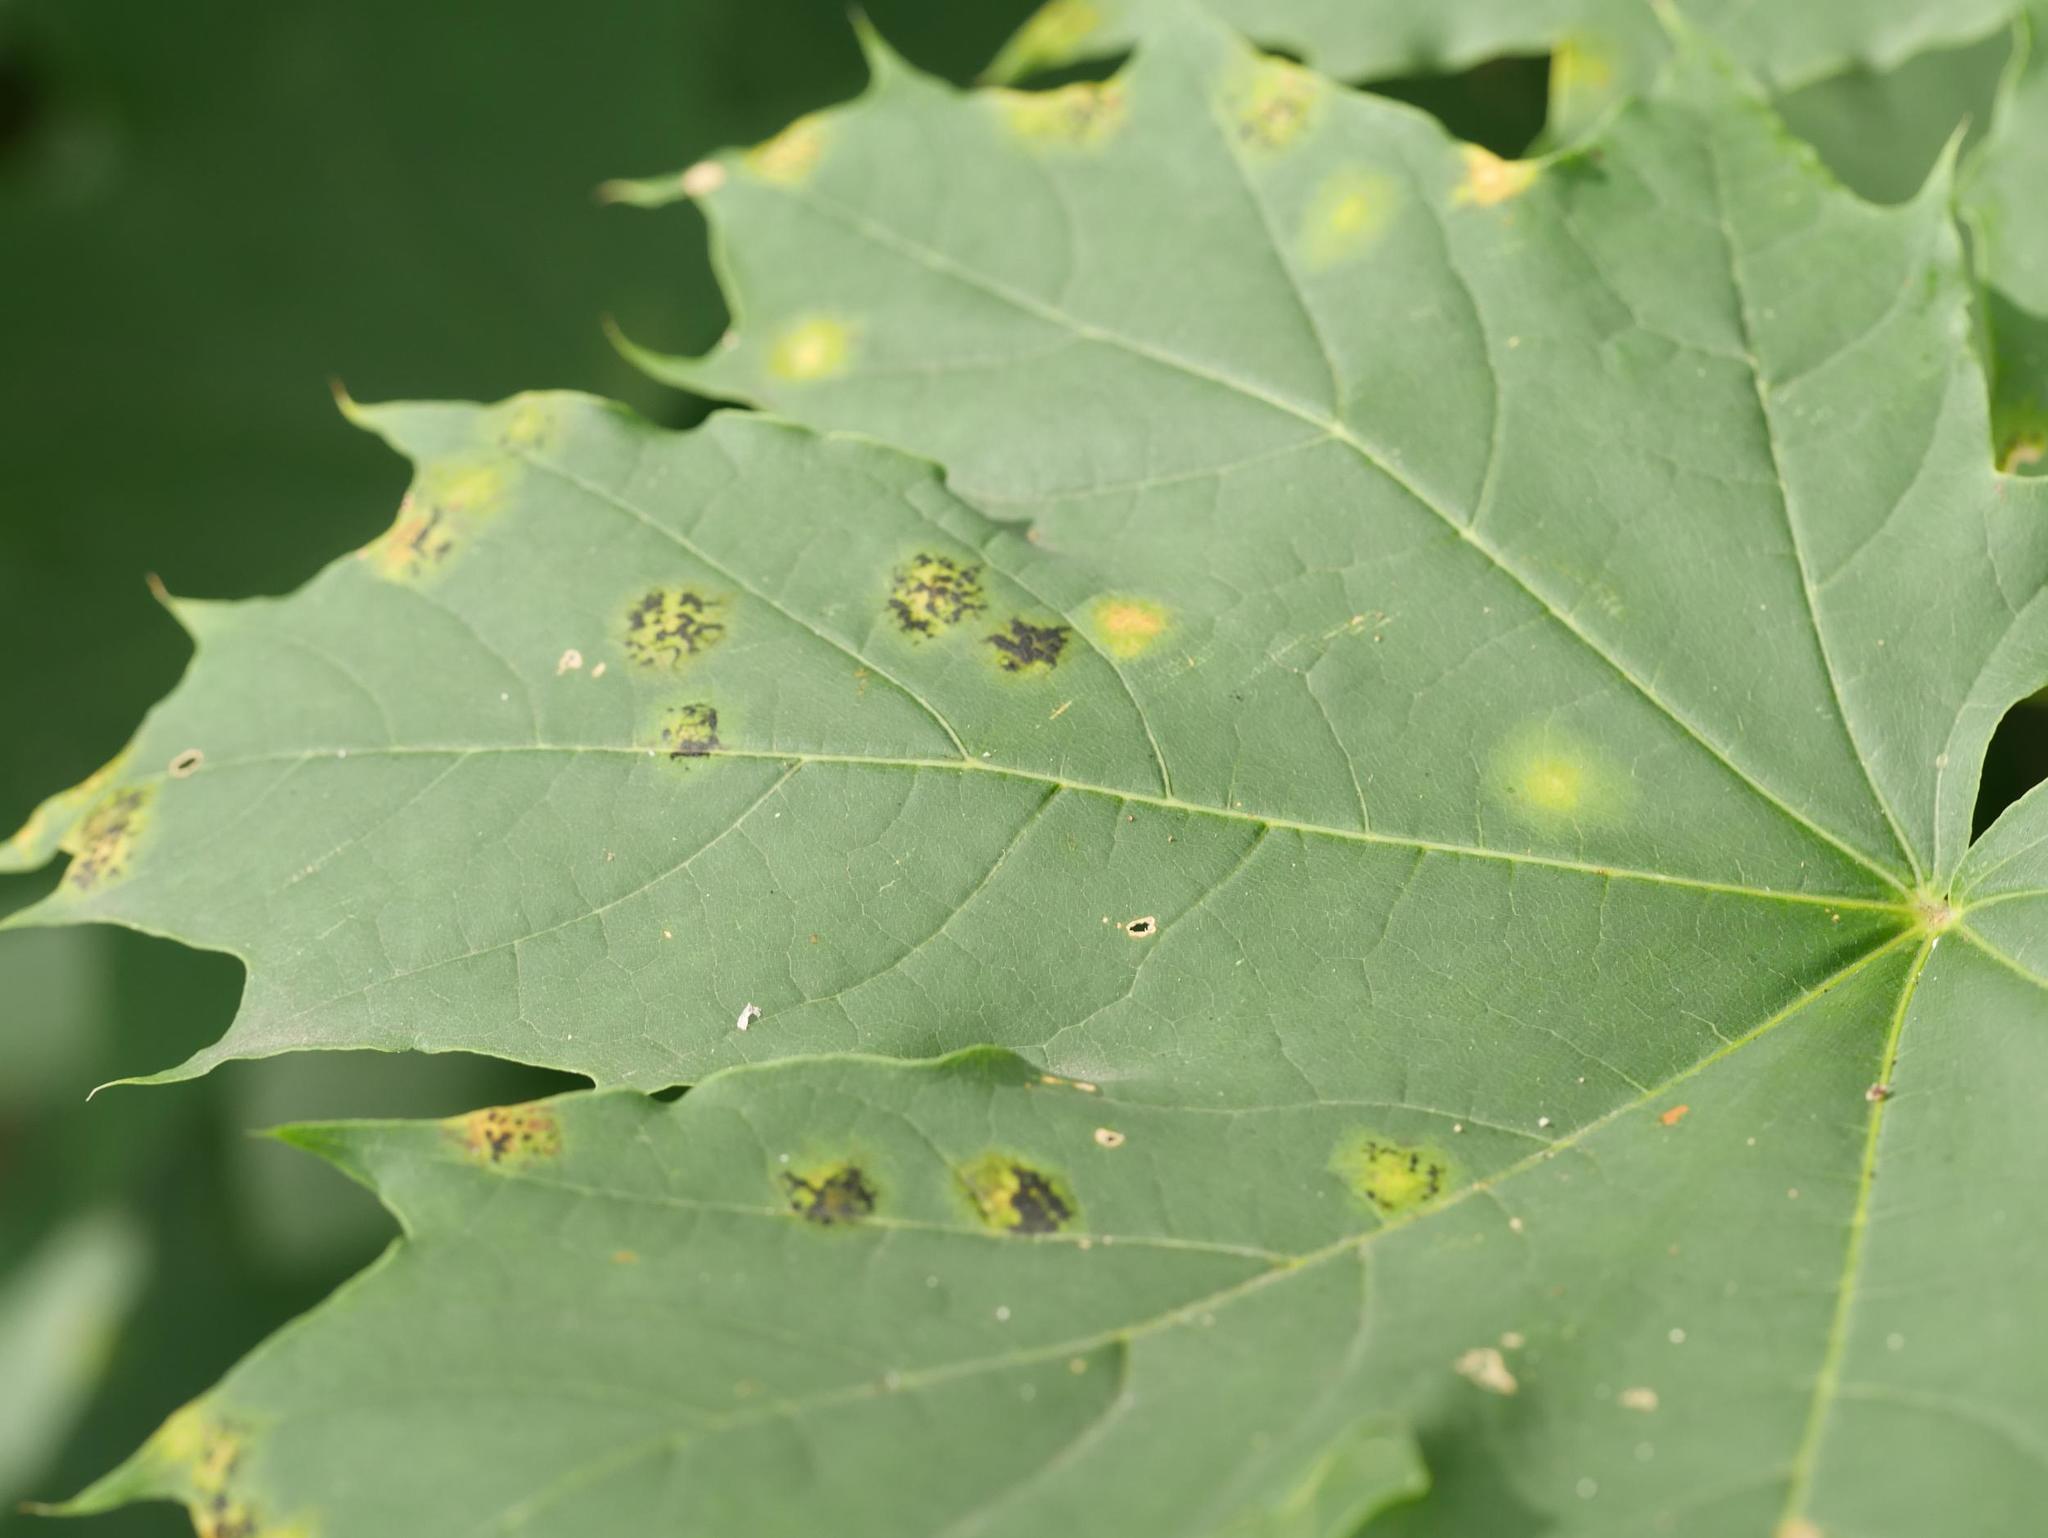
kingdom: Fungi
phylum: Ascomycota
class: Leotiomycetes
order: Rhytismatales
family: Rhytismataceae
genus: Rhytisma
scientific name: Rhytisma acerinum
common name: European tar spot
